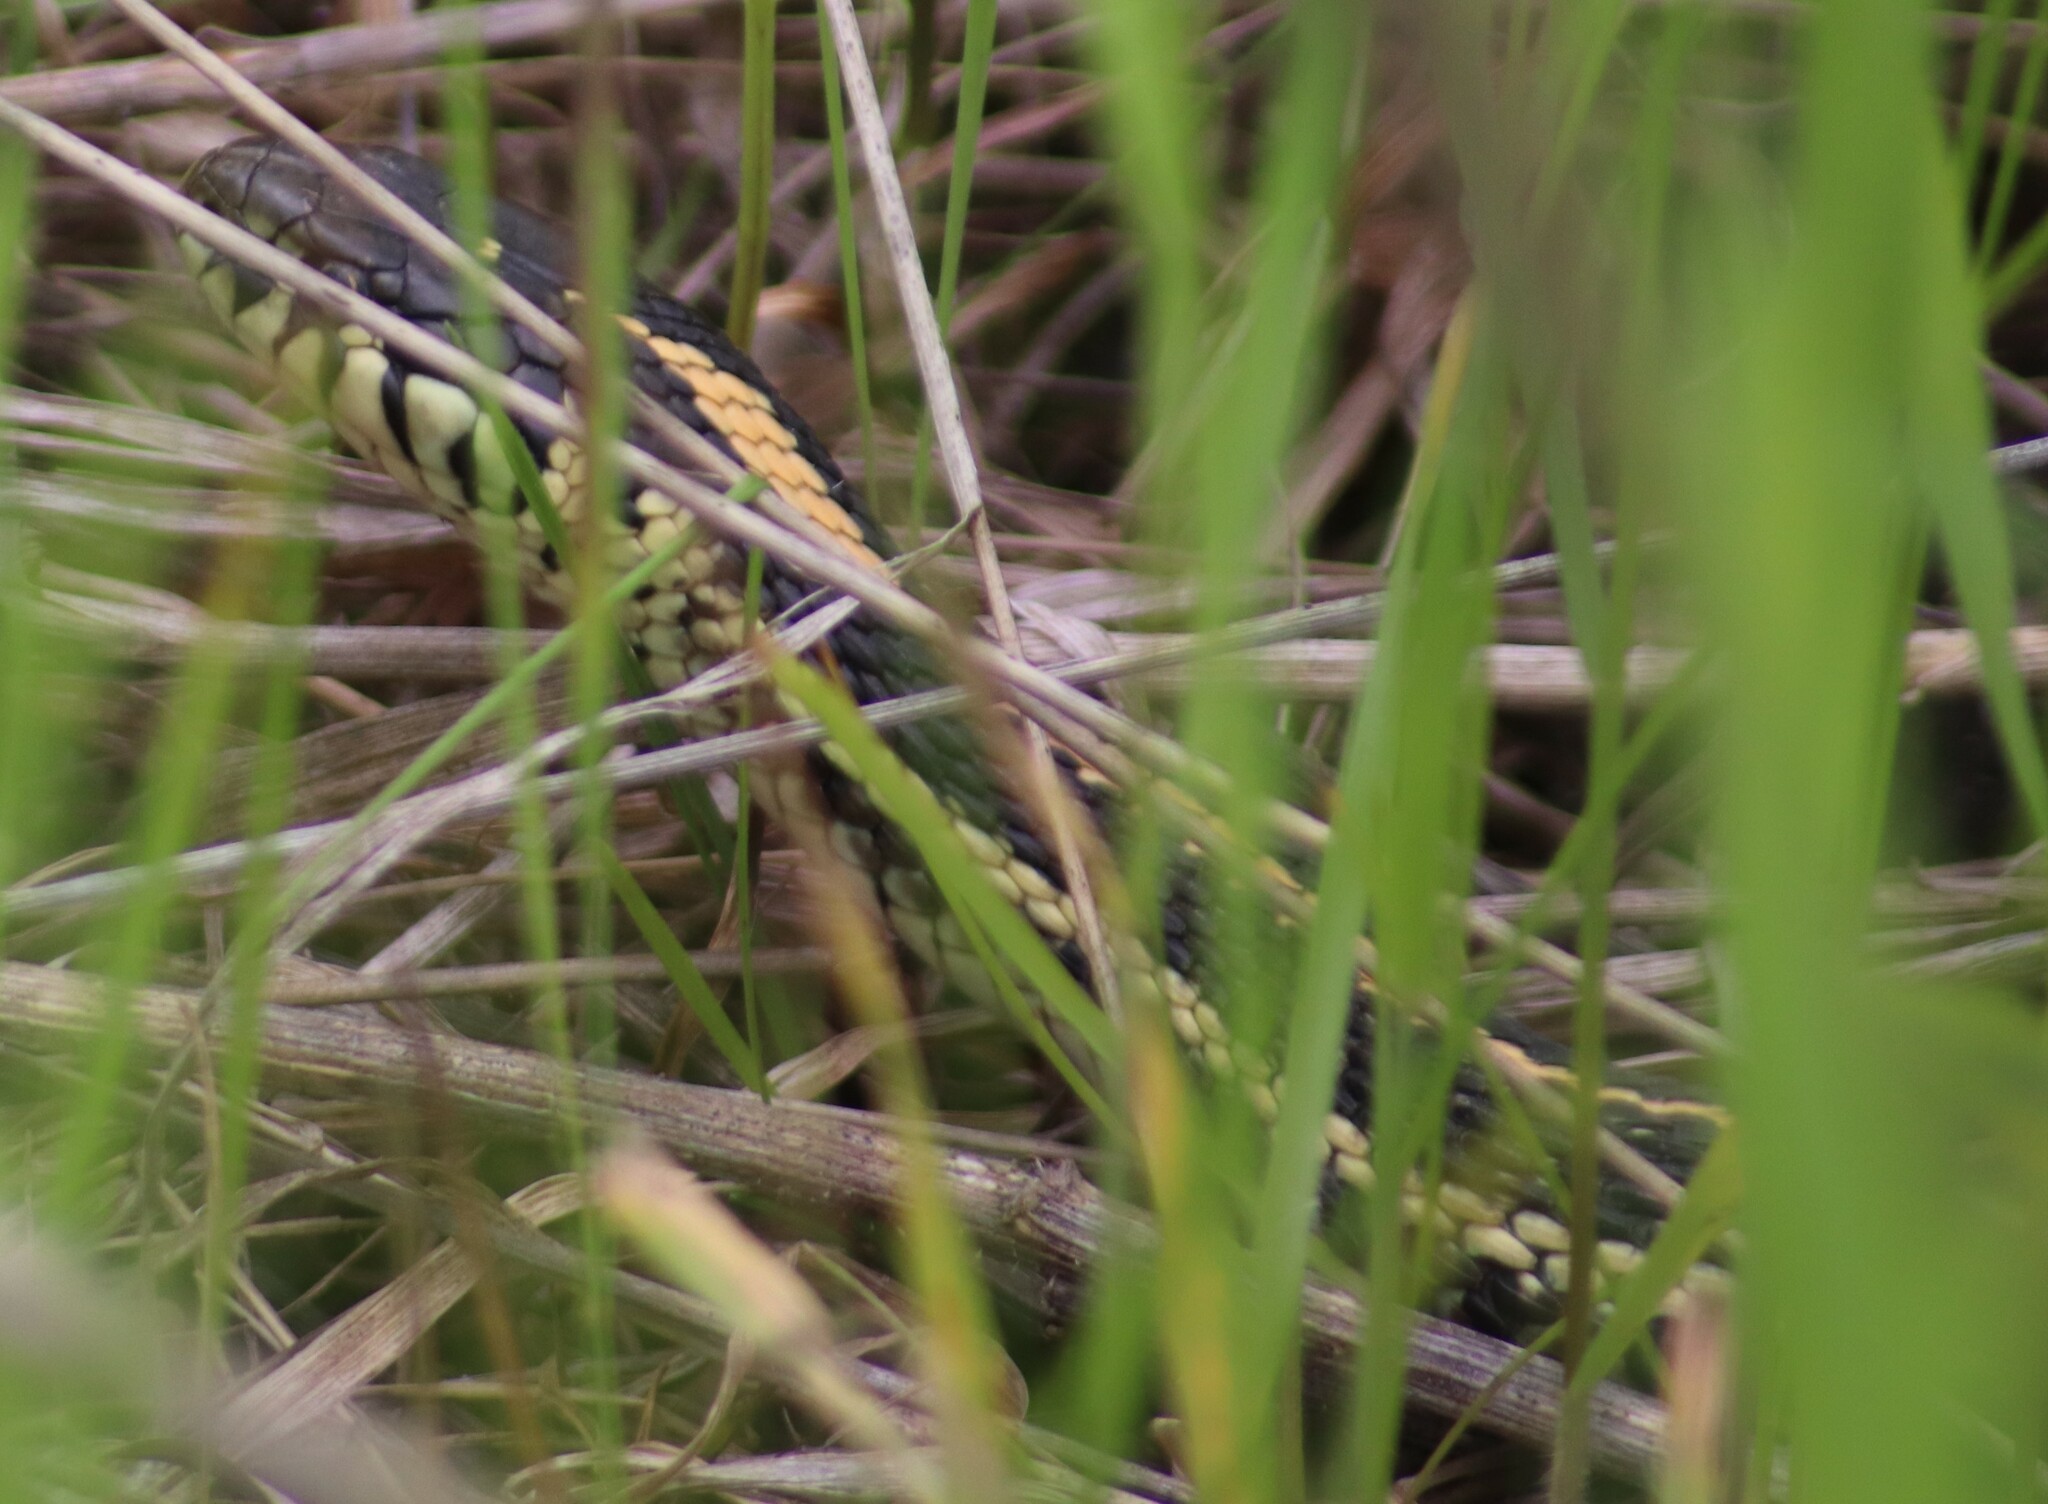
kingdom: Animalia
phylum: Chordata
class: Squamata
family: Colubridae
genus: Thamnophis
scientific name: Thamnophis radix
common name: Plains garter snake
